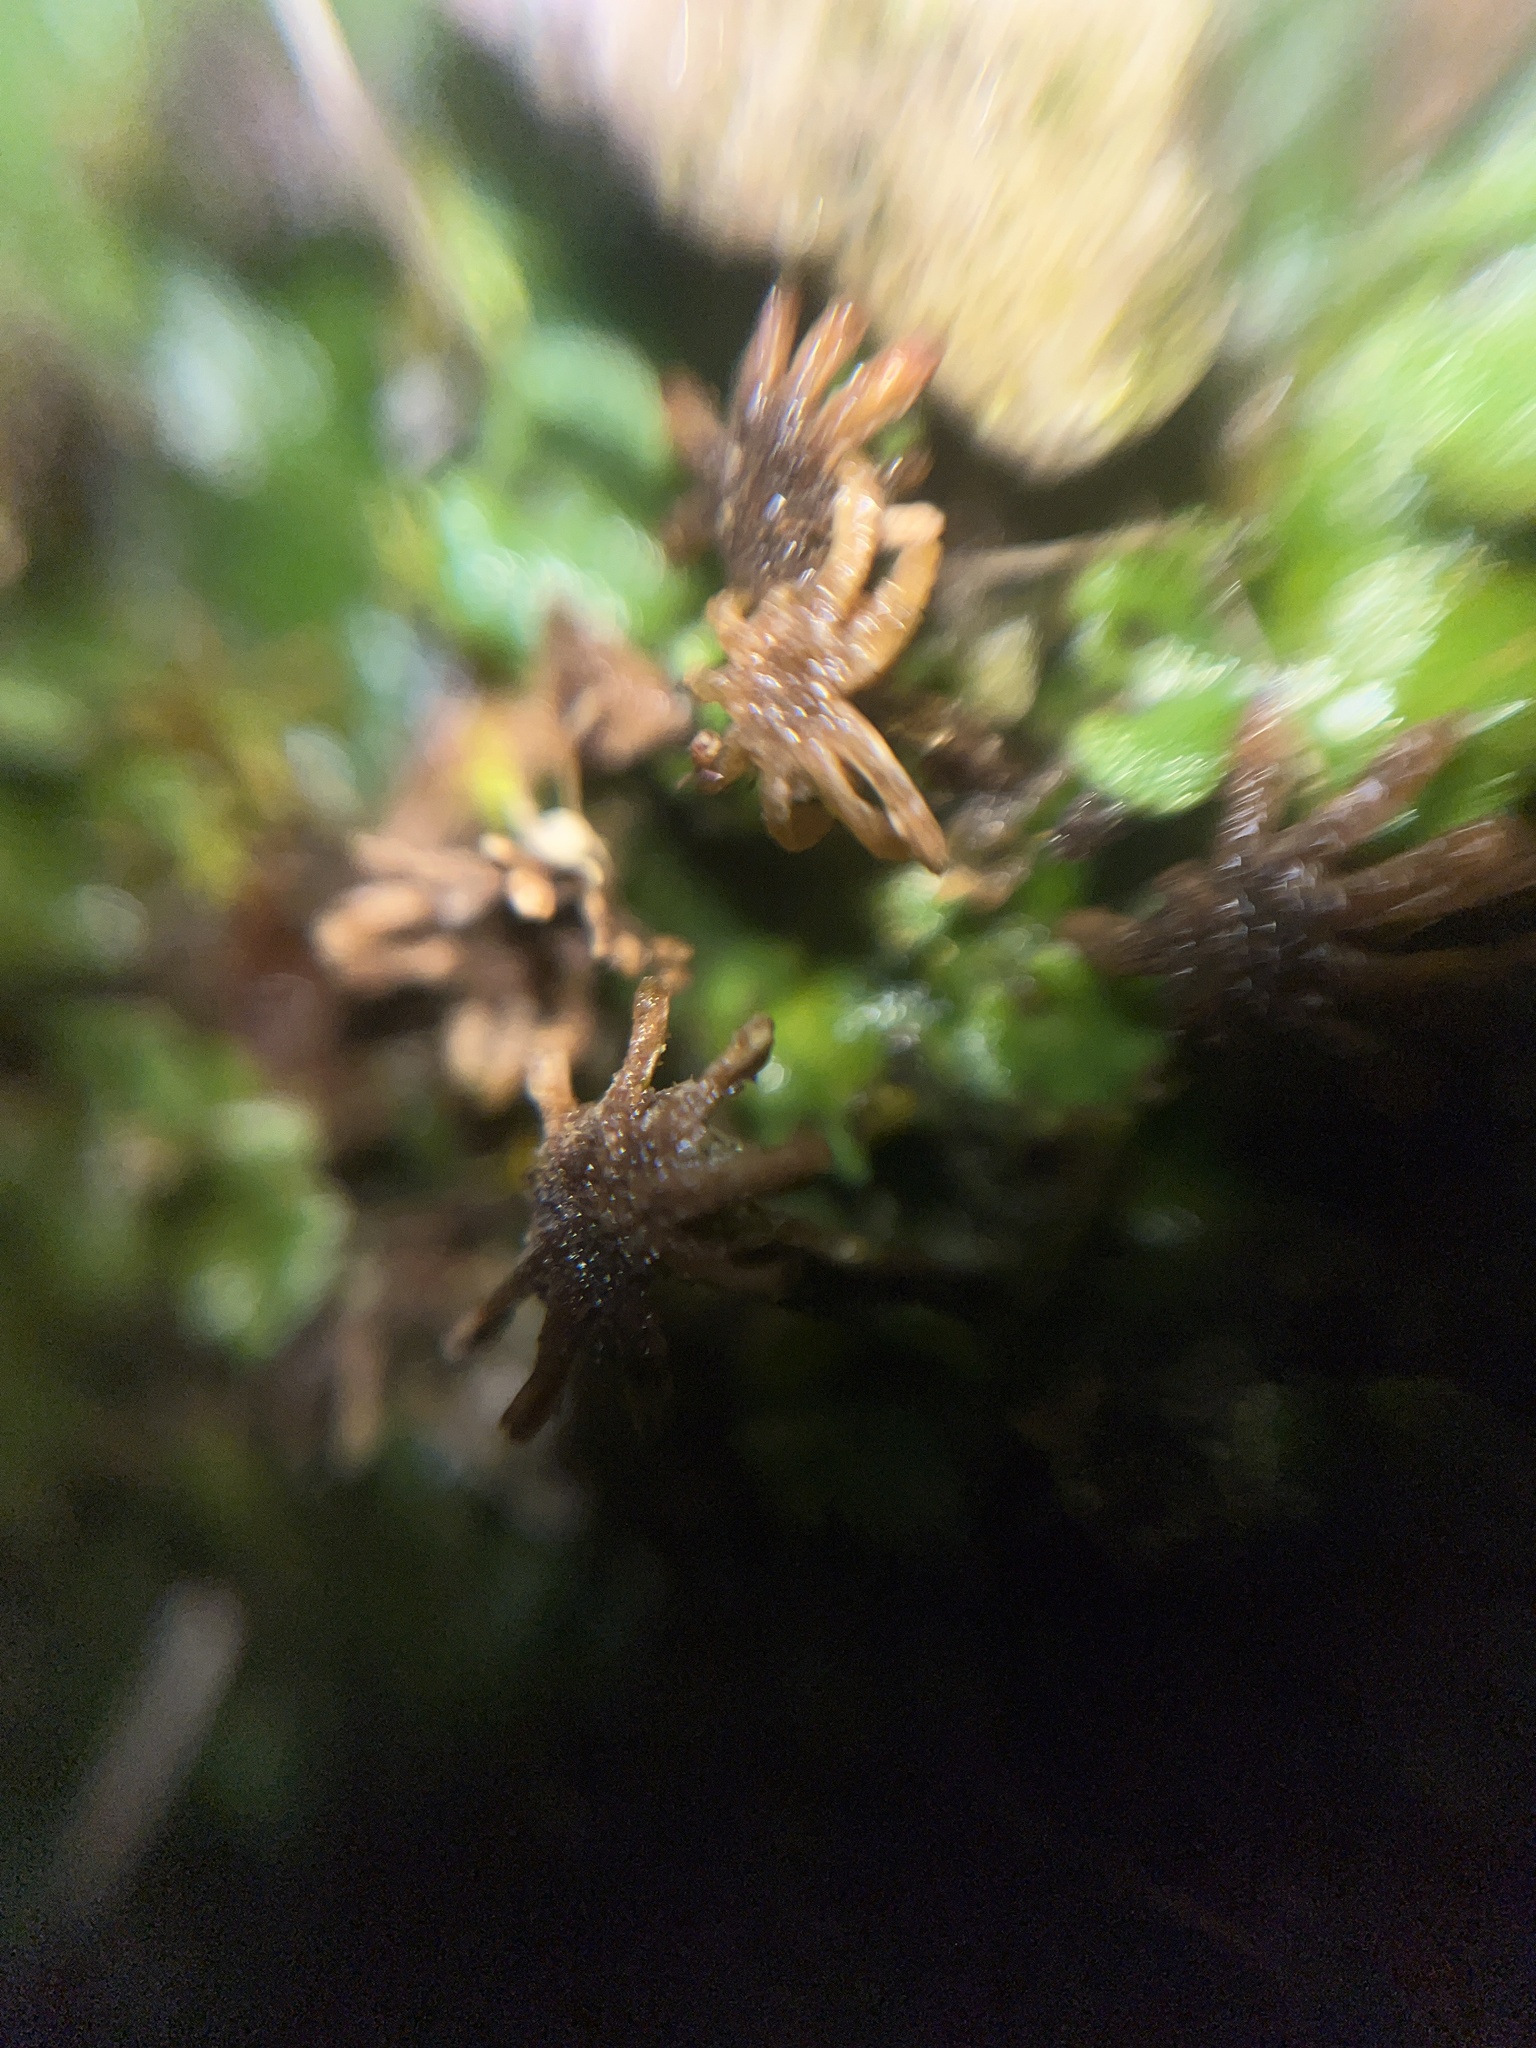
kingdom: Plantae
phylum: Marchantiophyta
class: Marchantiopsida
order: Marchantiales
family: Marchantiaceae
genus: Marchantia
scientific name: Marchantia polymorpha
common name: Common liverwort
